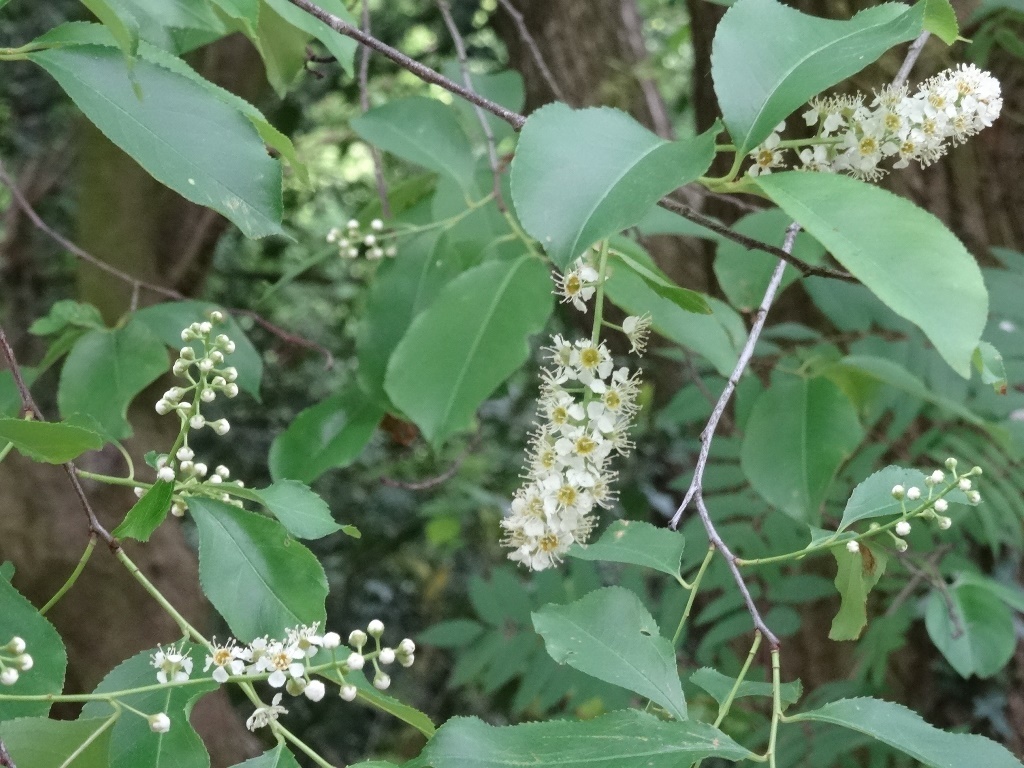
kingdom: Plantae
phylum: Tracheophyta
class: Magnoliopsida
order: Rosales
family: Rosaceae
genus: Prunus
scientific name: Prunus serotina
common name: Black cherry
